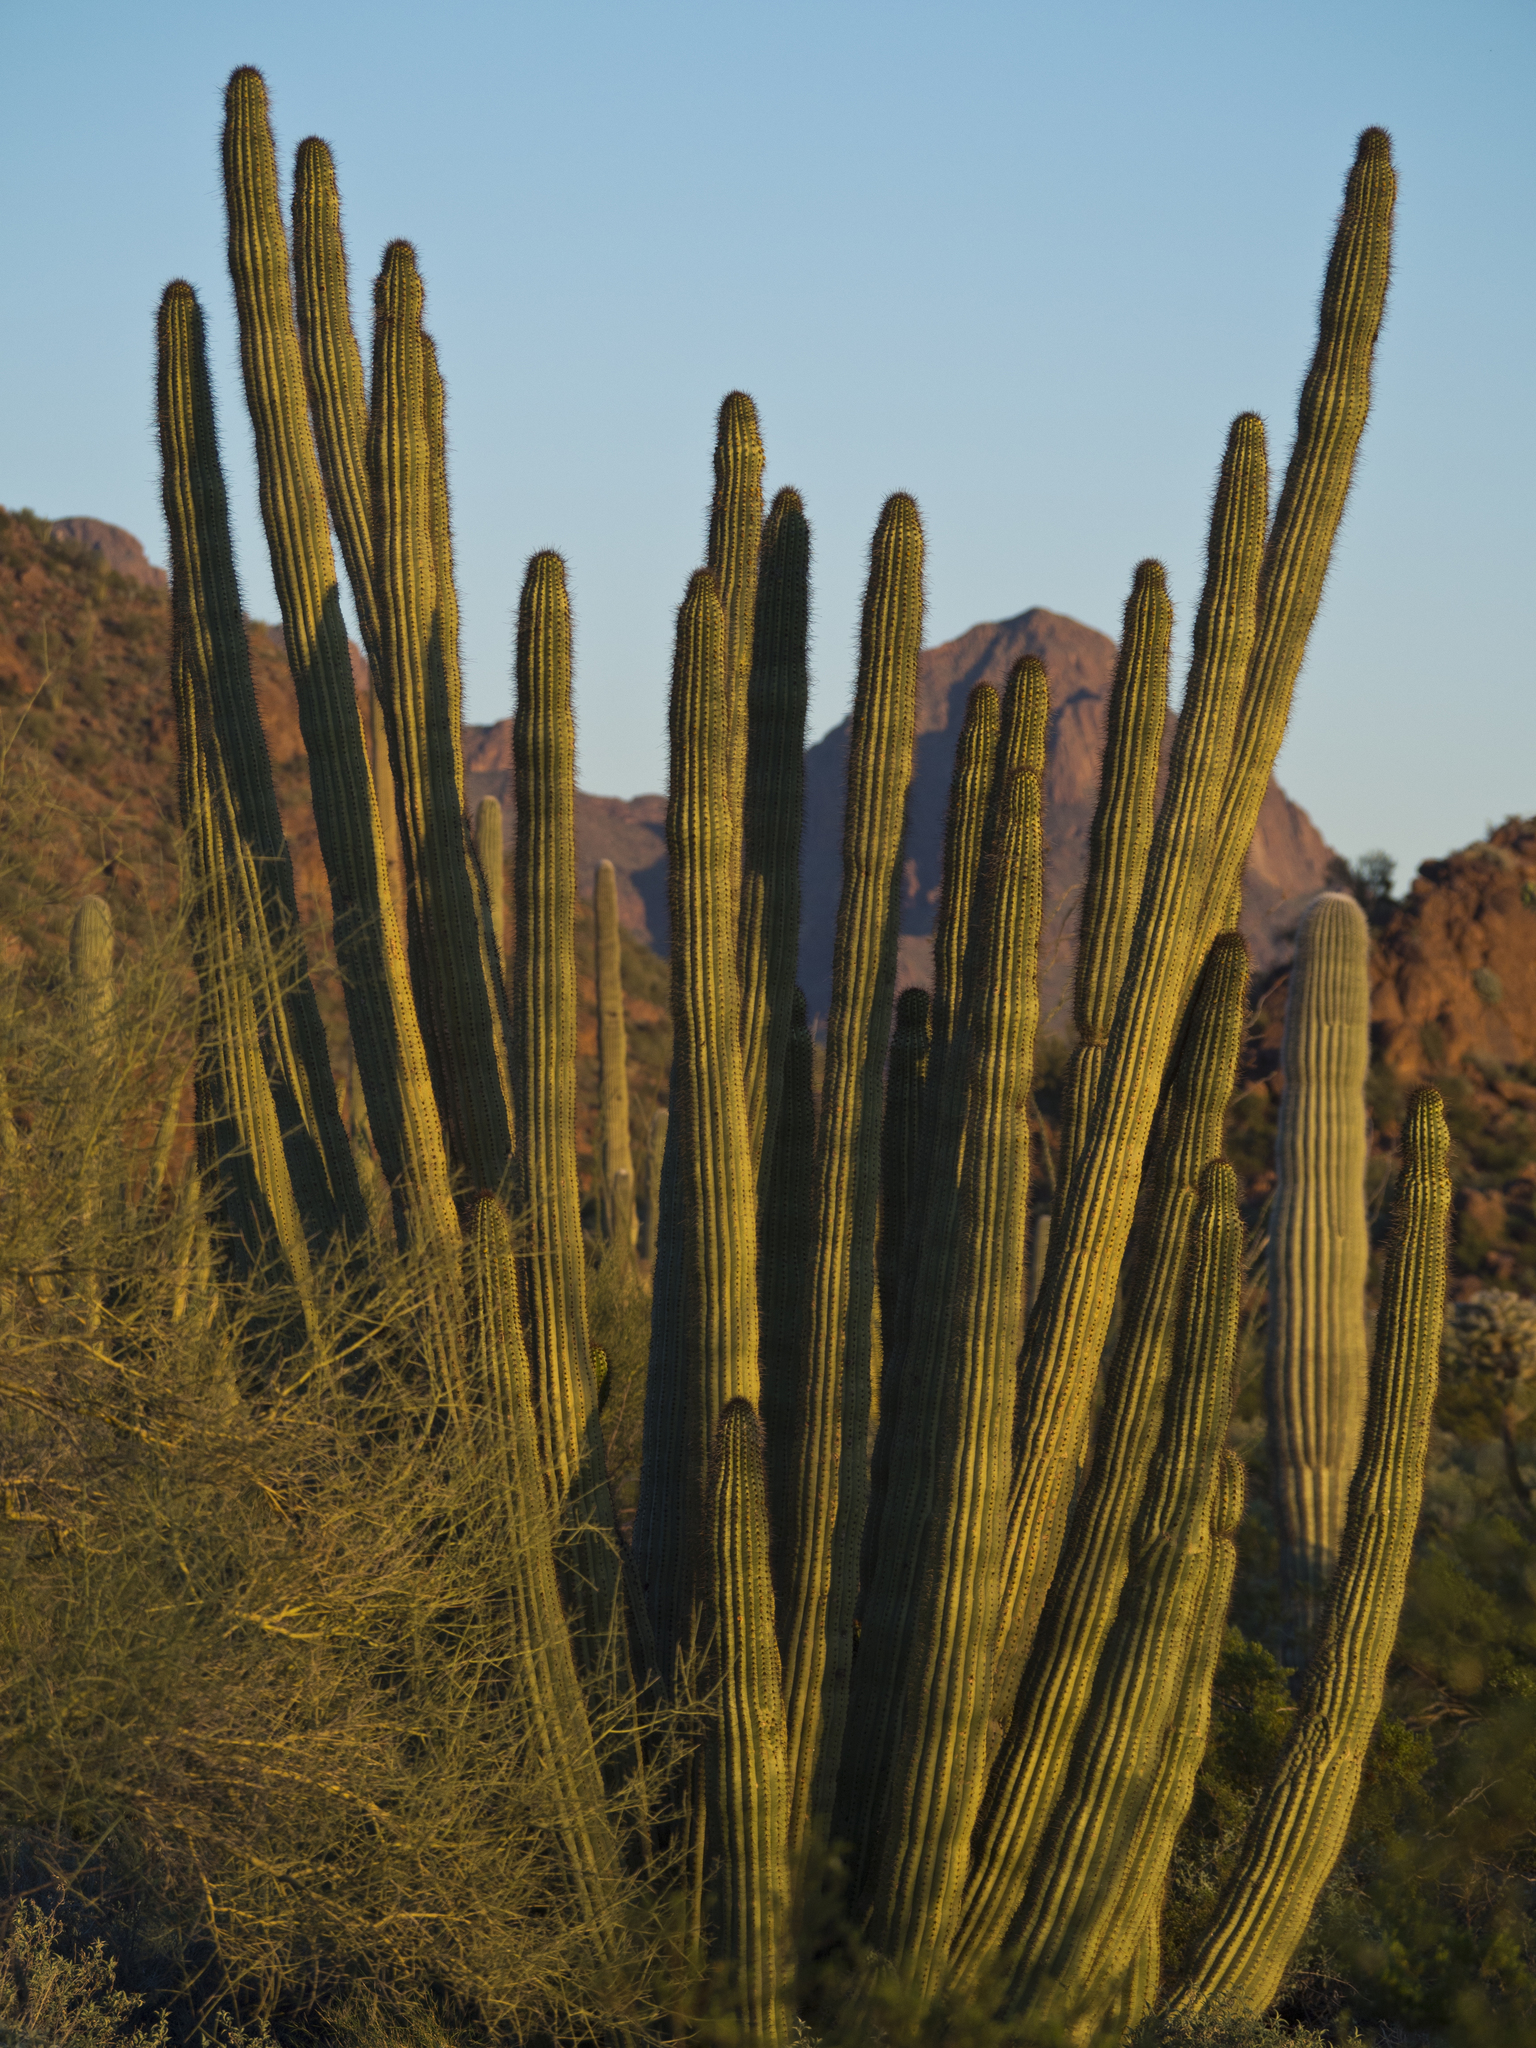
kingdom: Plantae
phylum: Tracheophyta
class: Magnoliopsida
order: Caryophyllales
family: Cactaceae
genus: Stenocereus
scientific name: Stenocereus thurberi
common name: Organ pipe cactus
